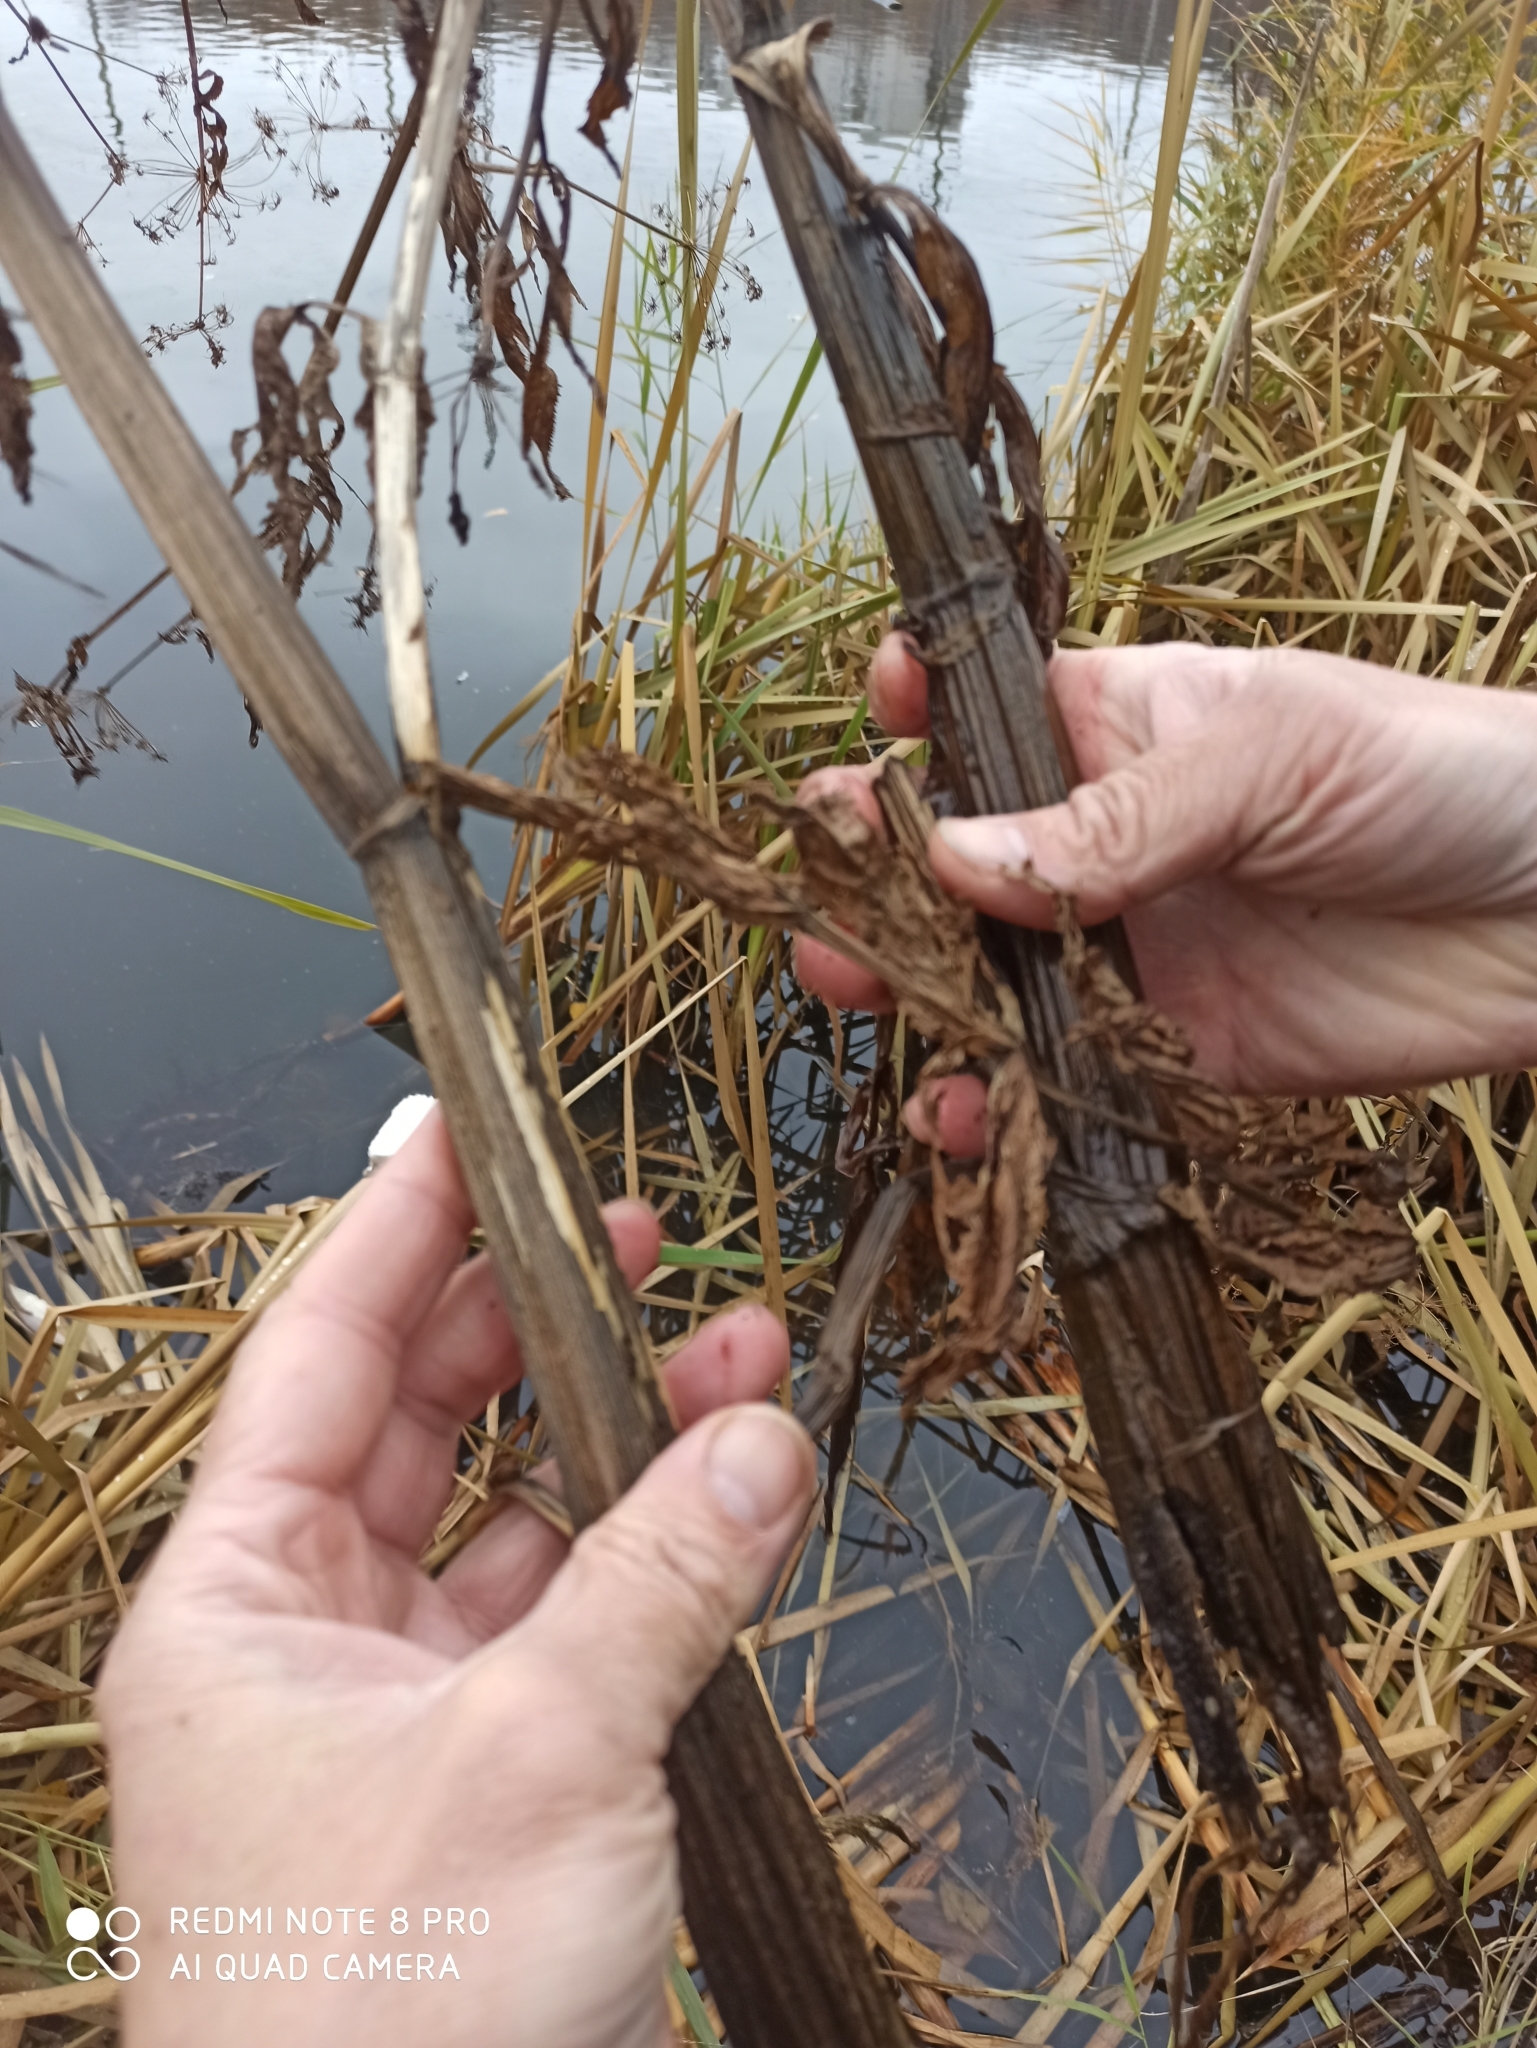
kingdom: Plantae
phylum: Tracheophyta
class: Magnoliopsida
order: Apiales
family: Apiaceae
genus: Sium
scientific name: Sium latifolium
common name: Greater water-parsnip
